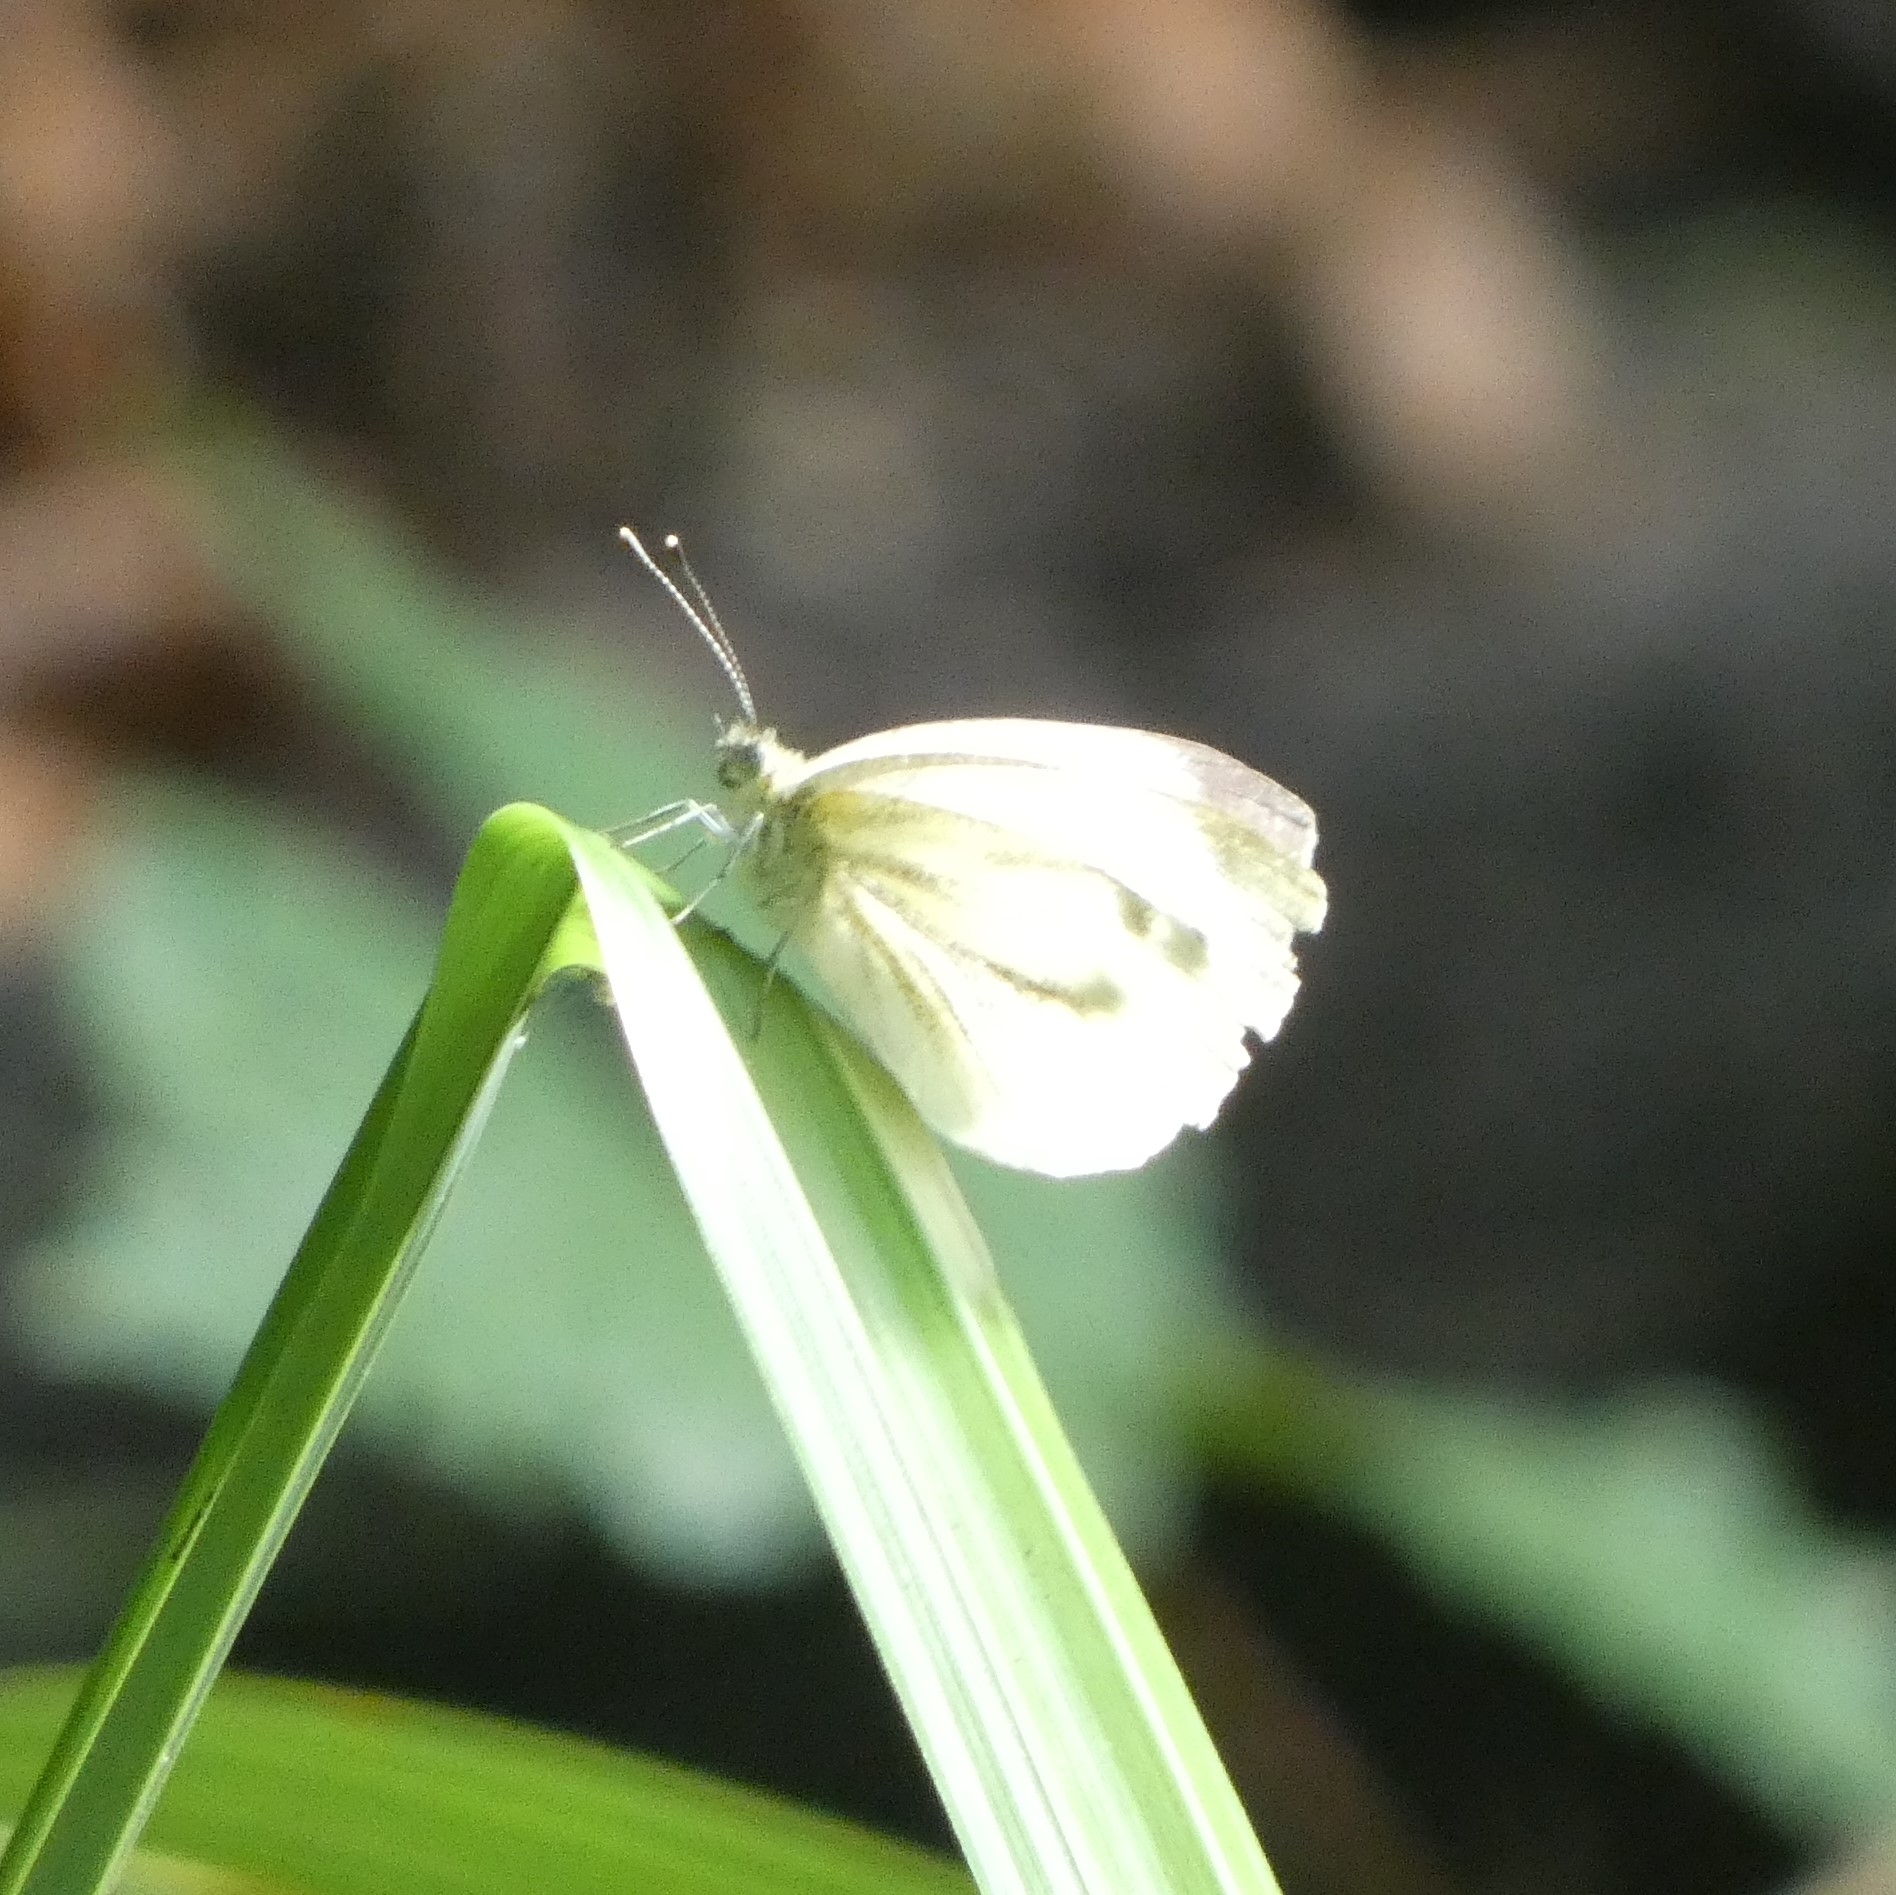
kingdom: Animalia
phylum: Arthropoda
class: Insecta
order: Lepidoptera
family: Pieridae
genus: Pieris
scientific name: Pieris napi
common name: Green-veined white
